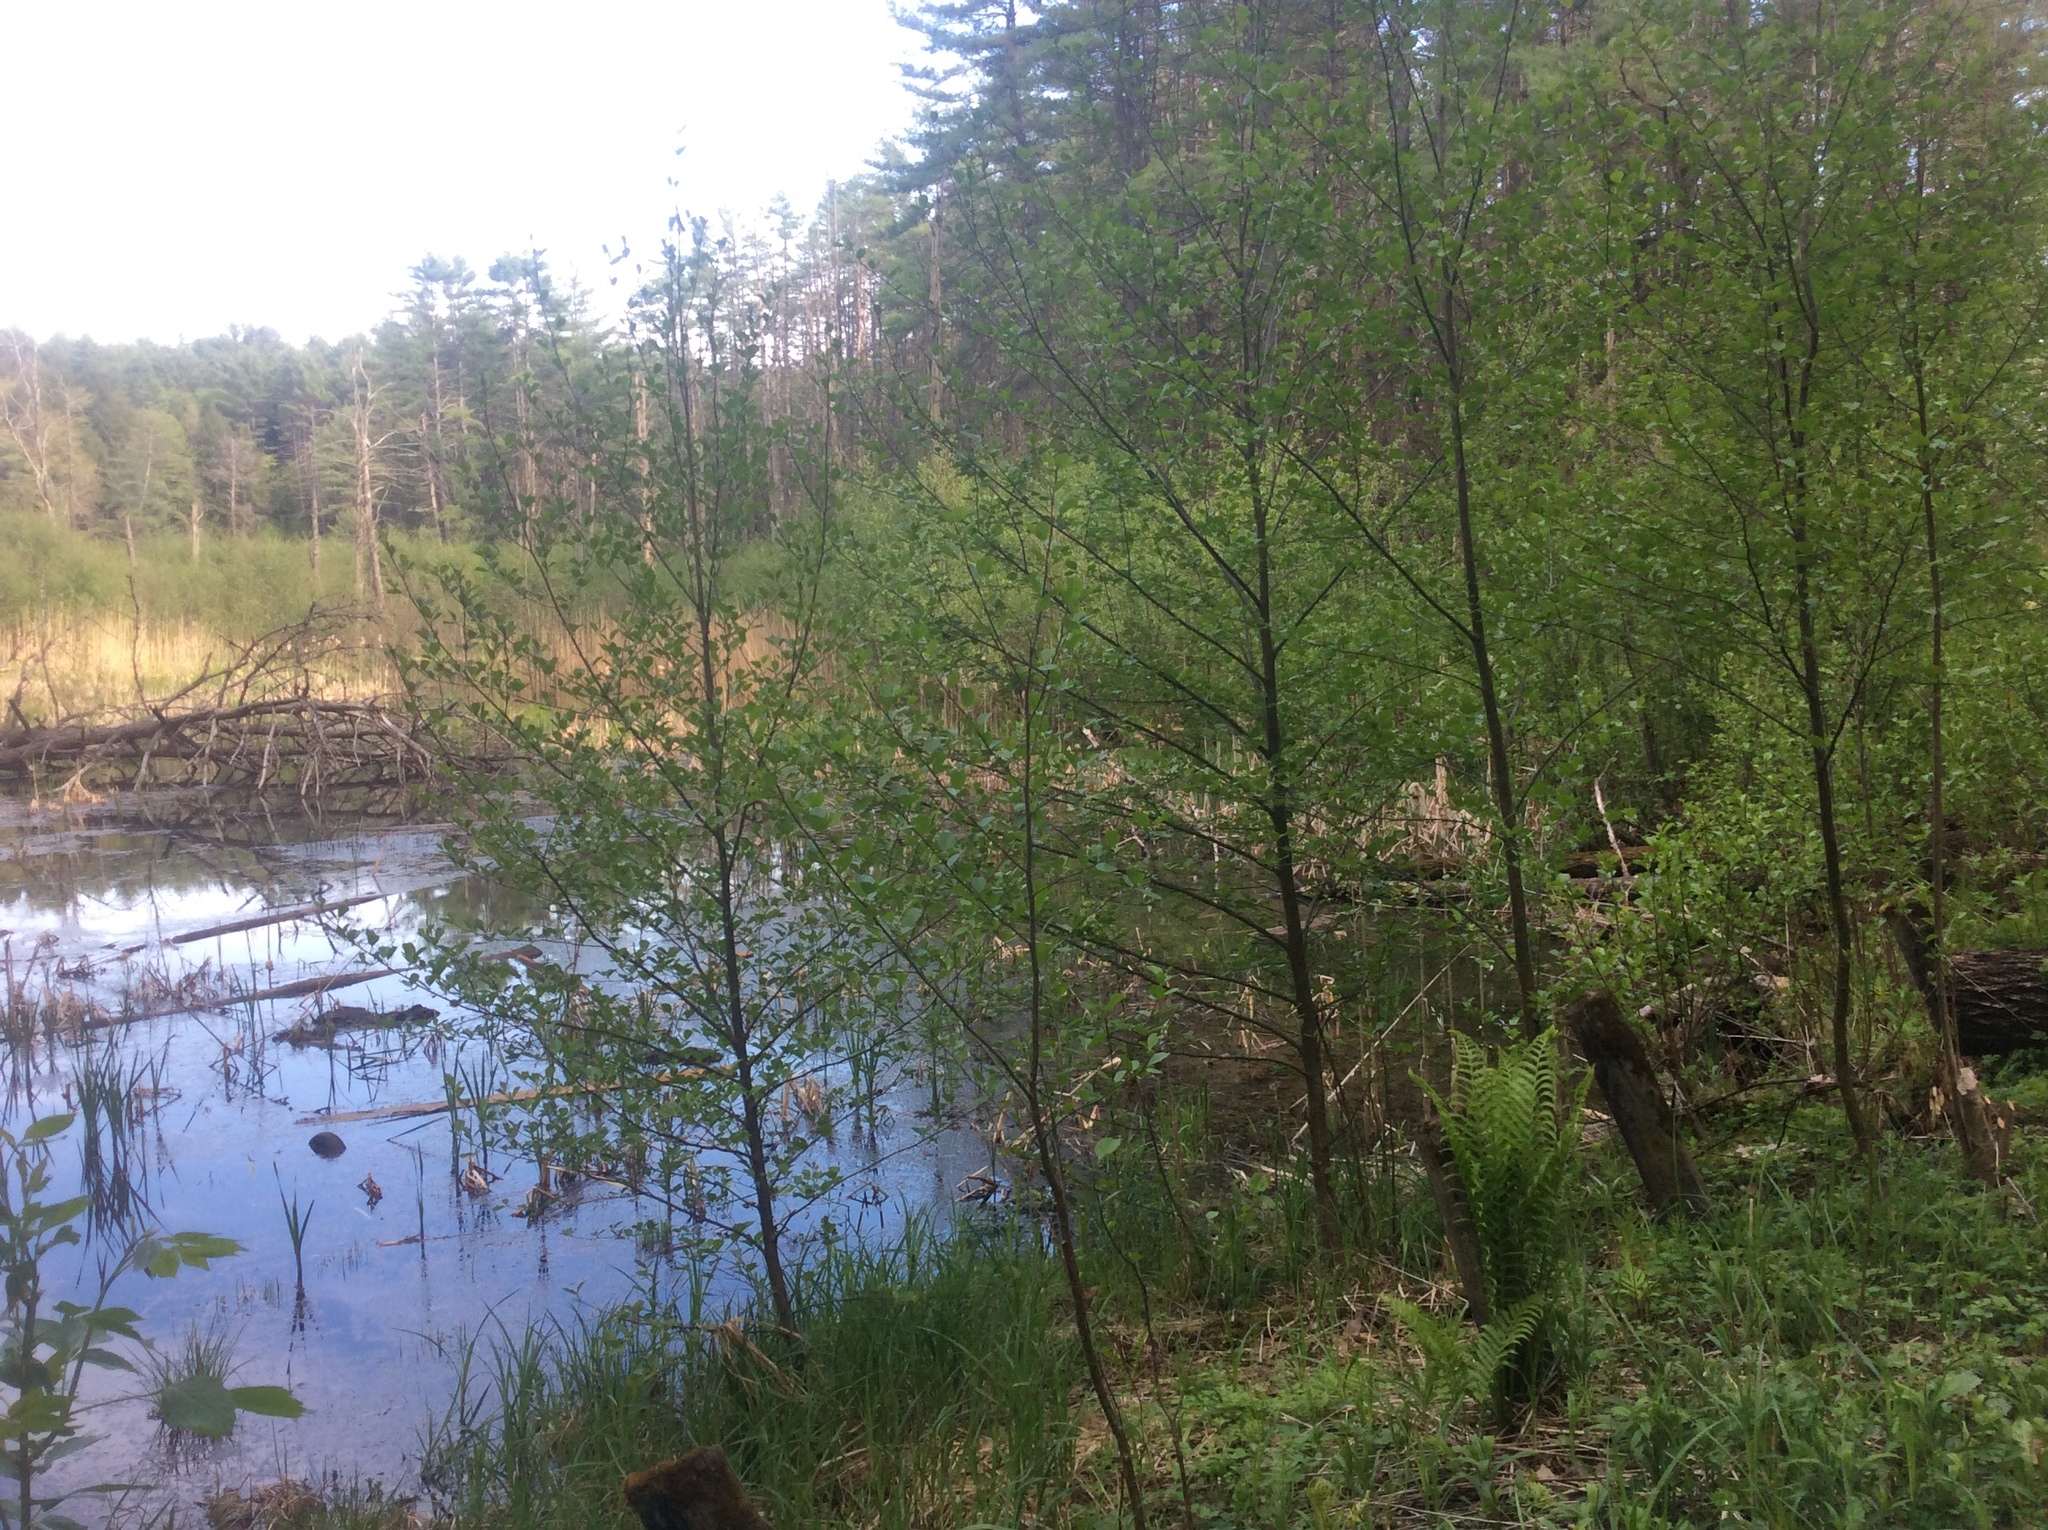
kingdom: Plantae
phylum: Tracheophyta
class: Magnoliopsida
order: Fagales
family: Betulaceae
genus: Alnus
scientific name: Alnus glutinosa
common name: Black alder
